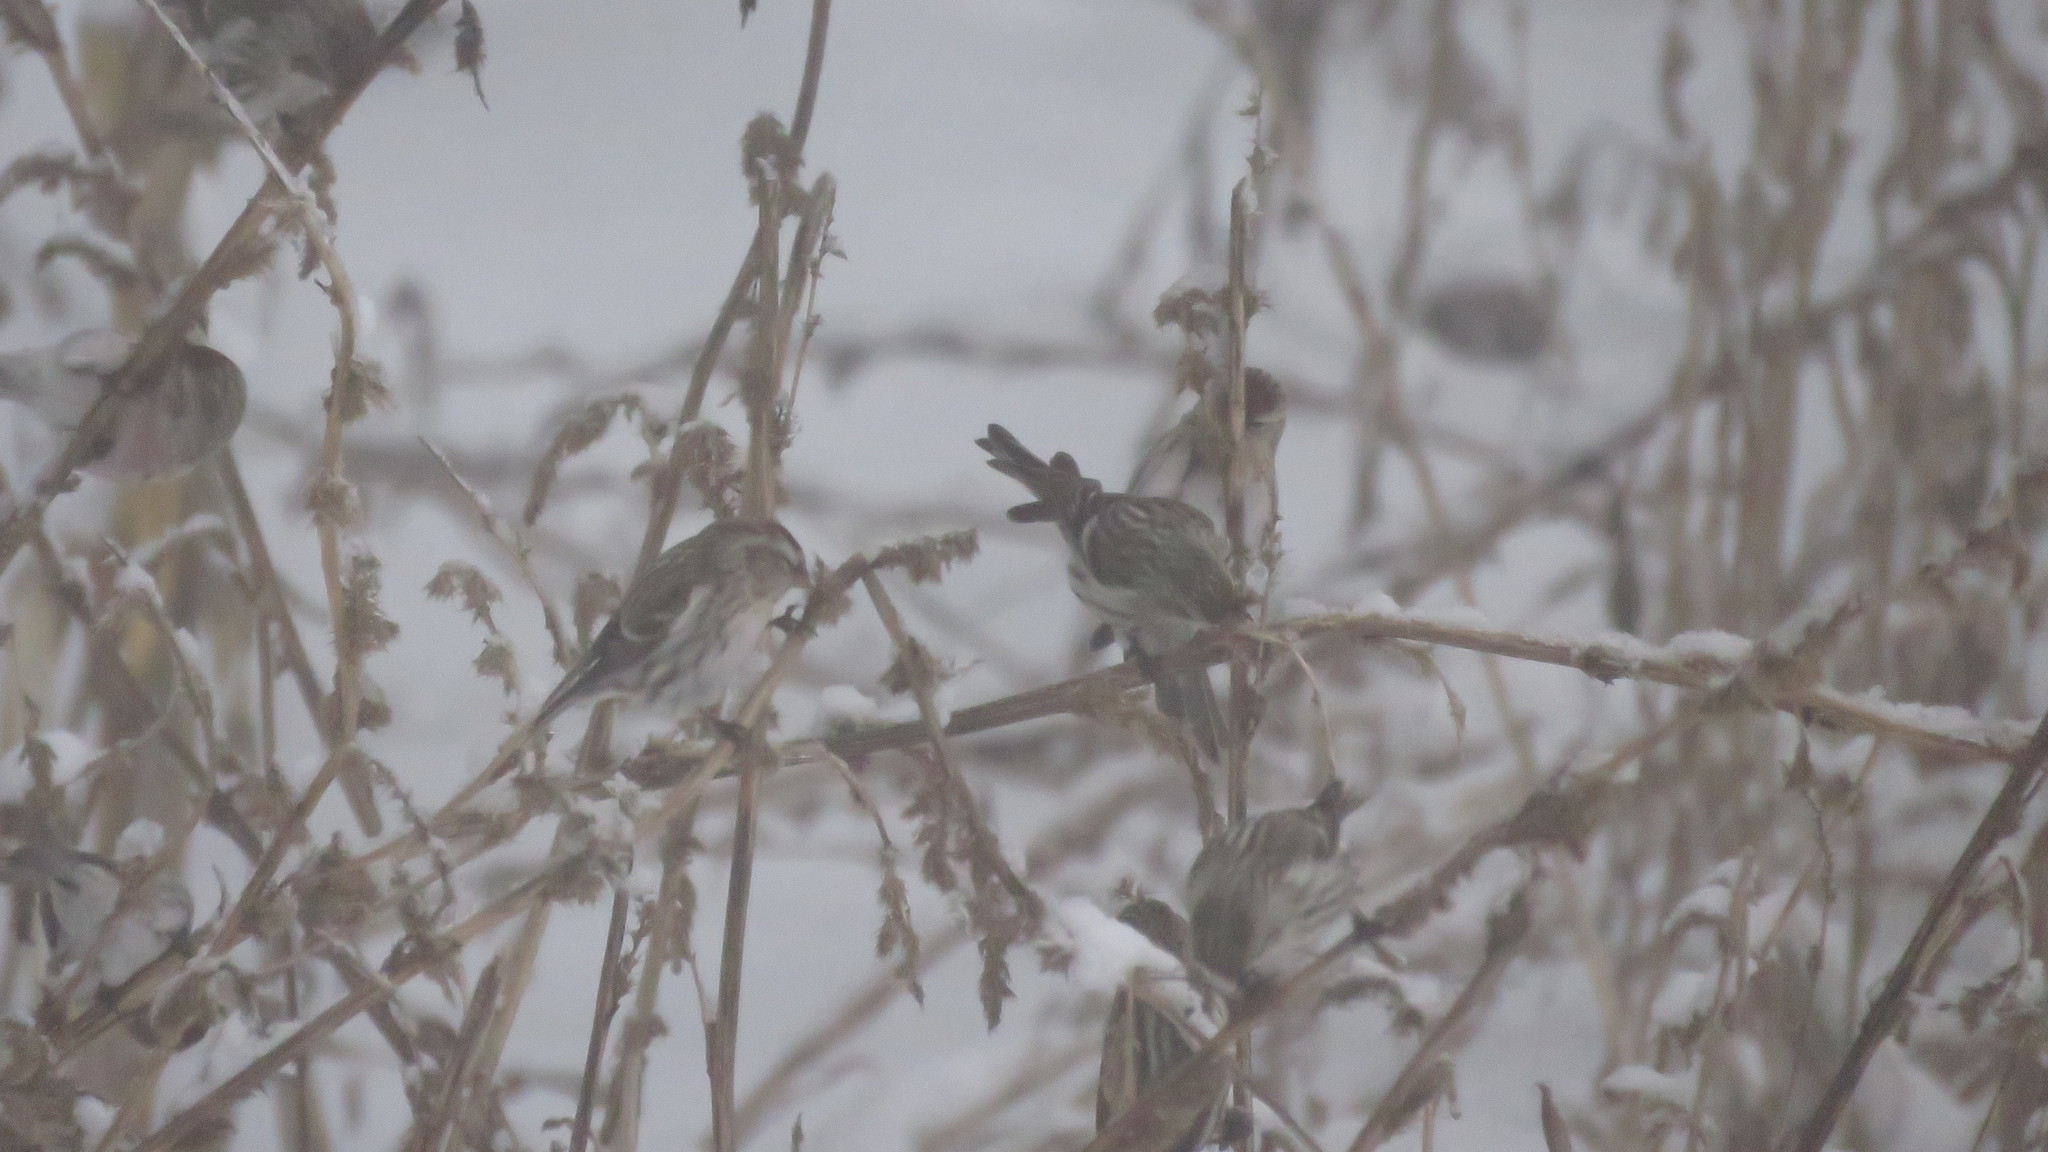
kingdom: Animalia
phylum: Chordata
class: Aves
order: Passeriformes
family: Fringillidae
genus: Acanthis
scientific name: Acanthis flammea
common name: Common redpoll
